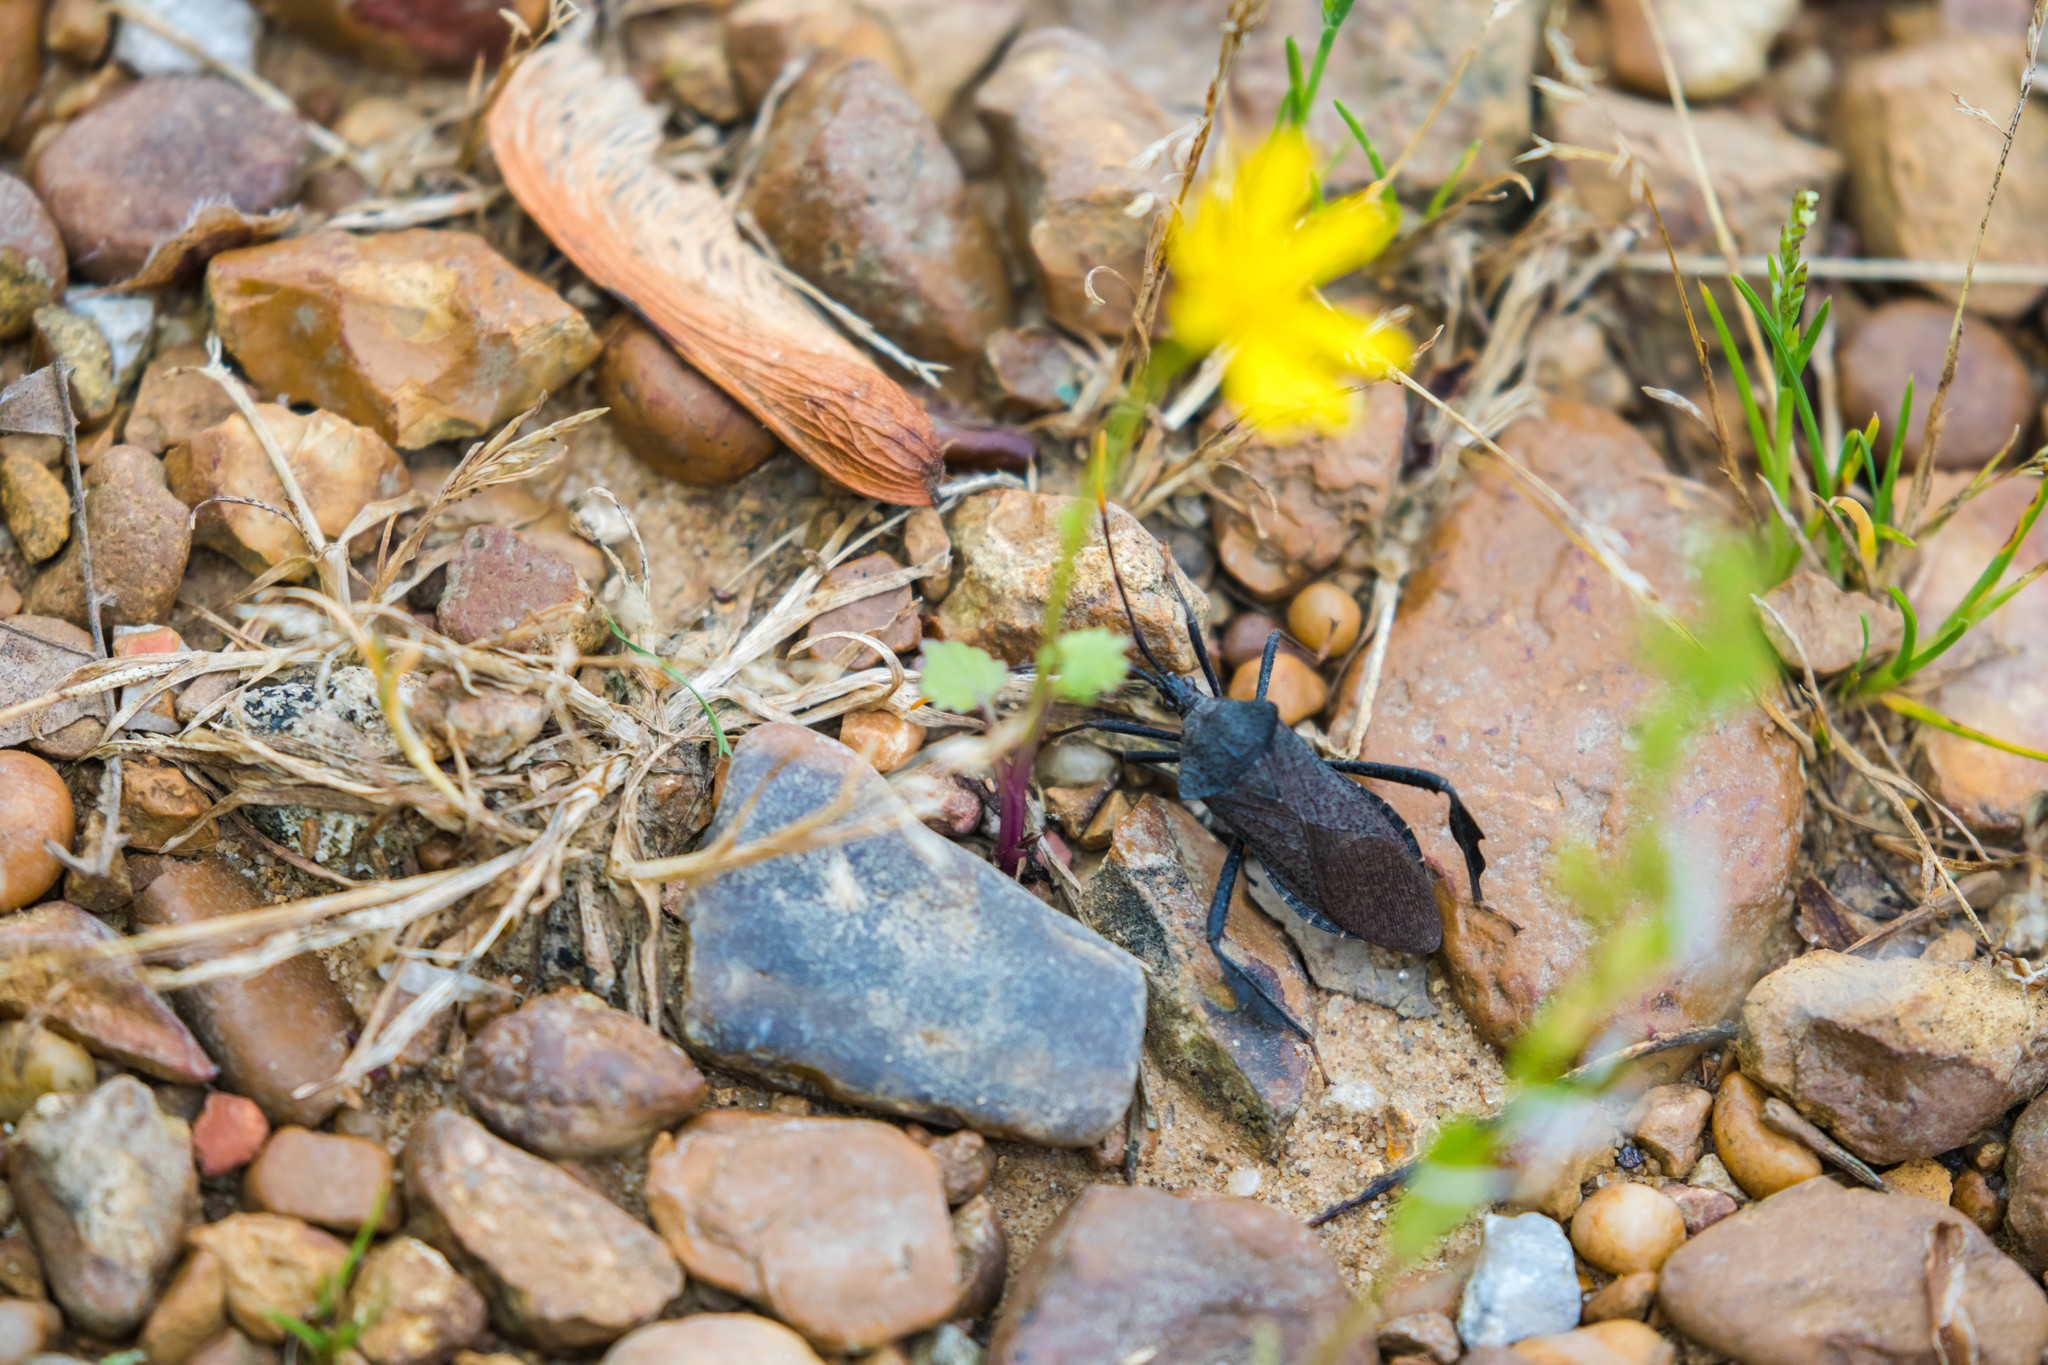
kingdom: Animalia
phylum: Arthropoda
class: Insecta
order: Hemiptera
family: Coreidae
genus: Acanthocephala
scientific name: Acanthocephala terminalis
